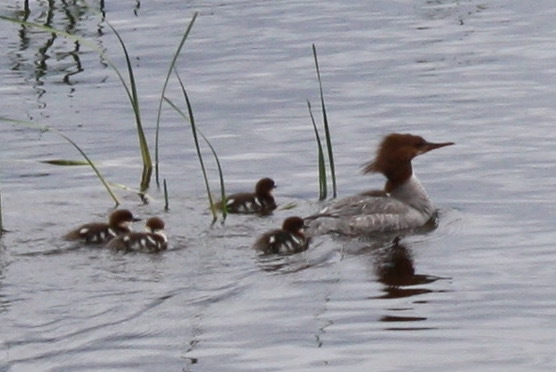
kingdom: Animalia
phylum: Chordata
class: Aves
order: Anseriformes
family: Anatidae
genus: Mergus
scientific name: Mergus merganser
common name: Common merganser
